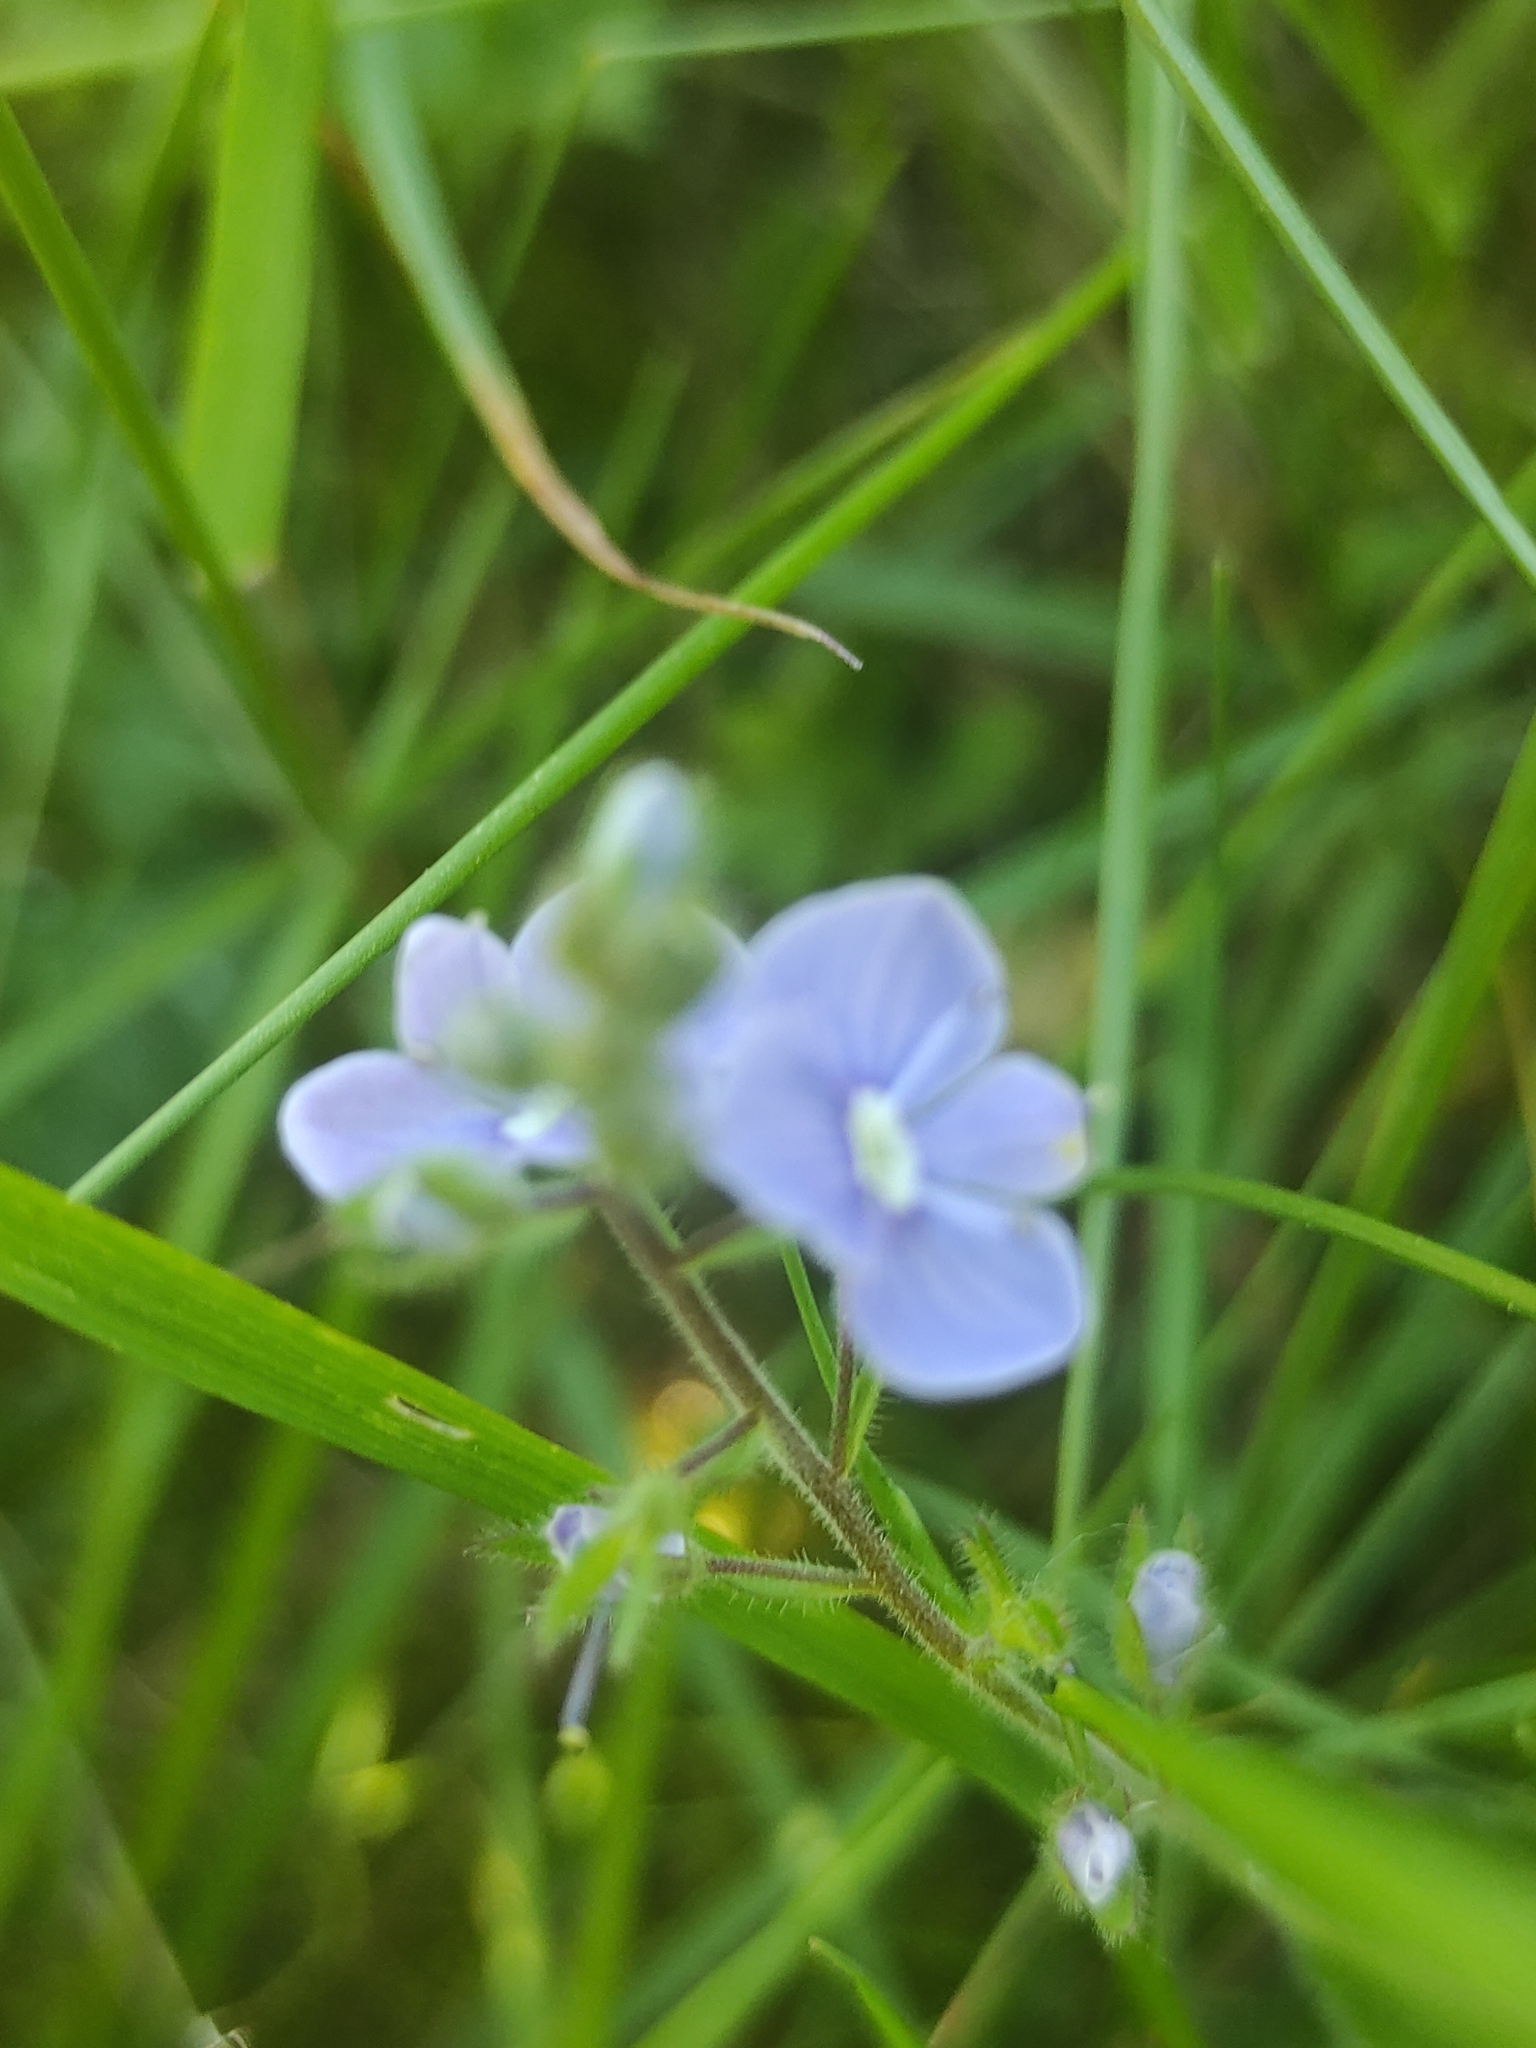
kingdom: Plantae
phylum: Tracheophyta
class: Magnoliopsida
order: Lamiales
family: Plantaginaceae
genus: Veronica
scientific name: Veronica chamaedrys
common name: Germander speedwell
